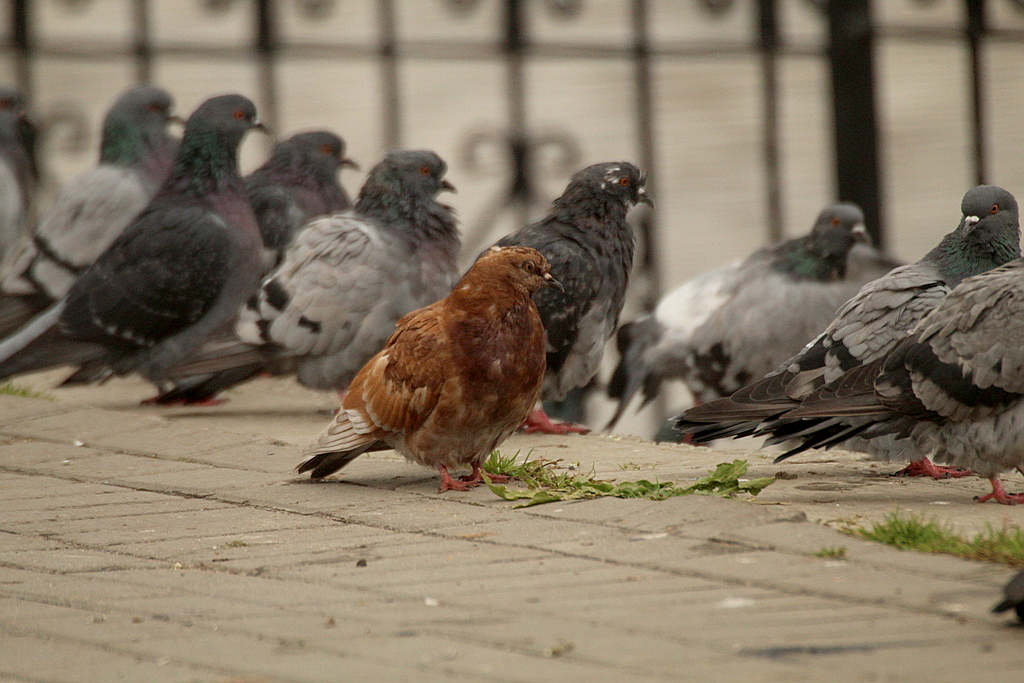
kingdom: Animalia
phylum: Chordata
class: Aves
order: Columbiformes
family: Columbidae
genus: Columba
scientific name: Columba livia
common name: Rock pigeon
